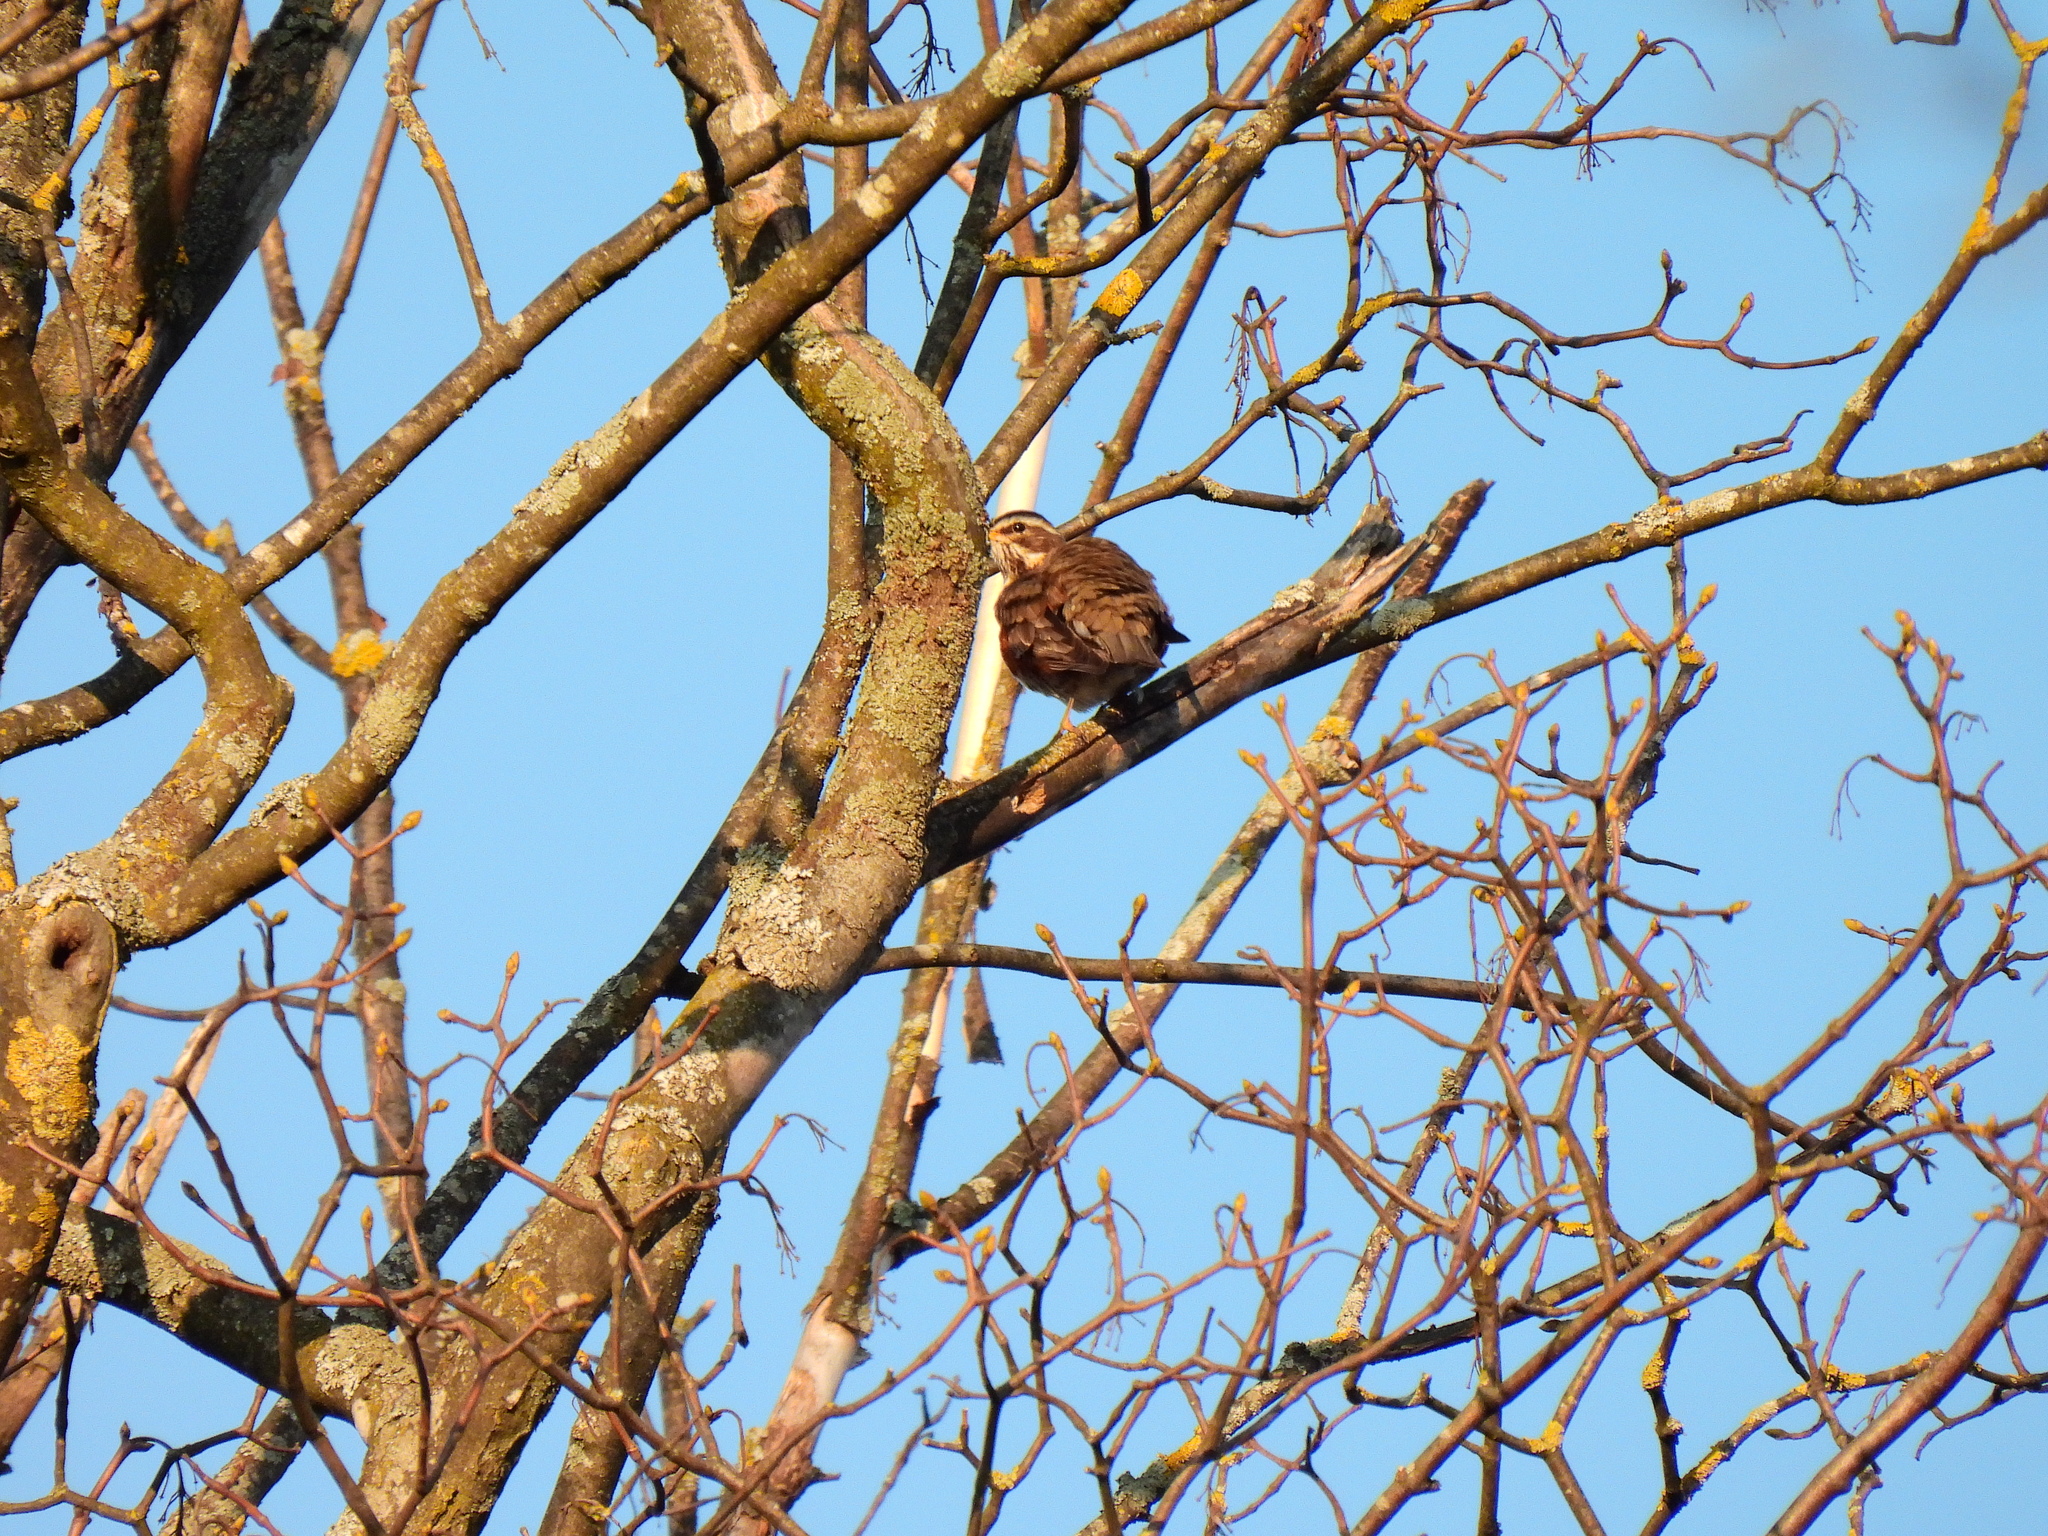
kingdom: Animalia
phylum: Chordata
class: Aves
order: Passeriformes
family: Turdidae
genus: Turdus
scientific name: Turdus iliacus
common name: Redwing
